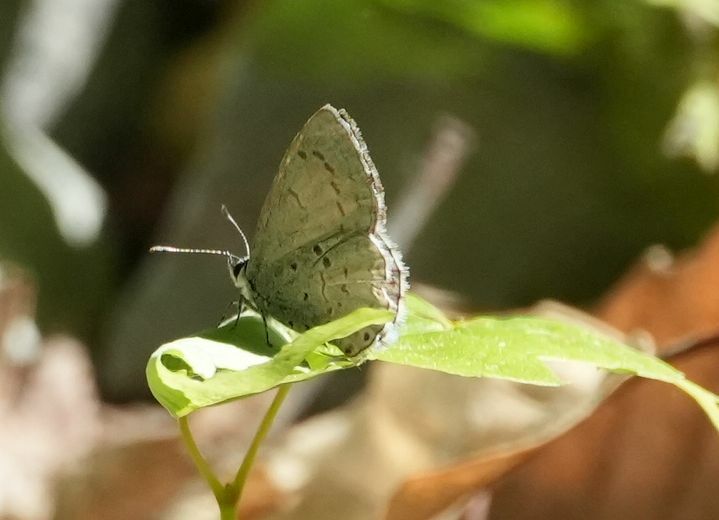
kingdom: Animalia
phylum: Arthropoda
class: Insecta
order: Lepidoptera
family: Lycaenidae
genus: Celastrina
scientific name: Celastrina lucia
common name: Lucia azure
